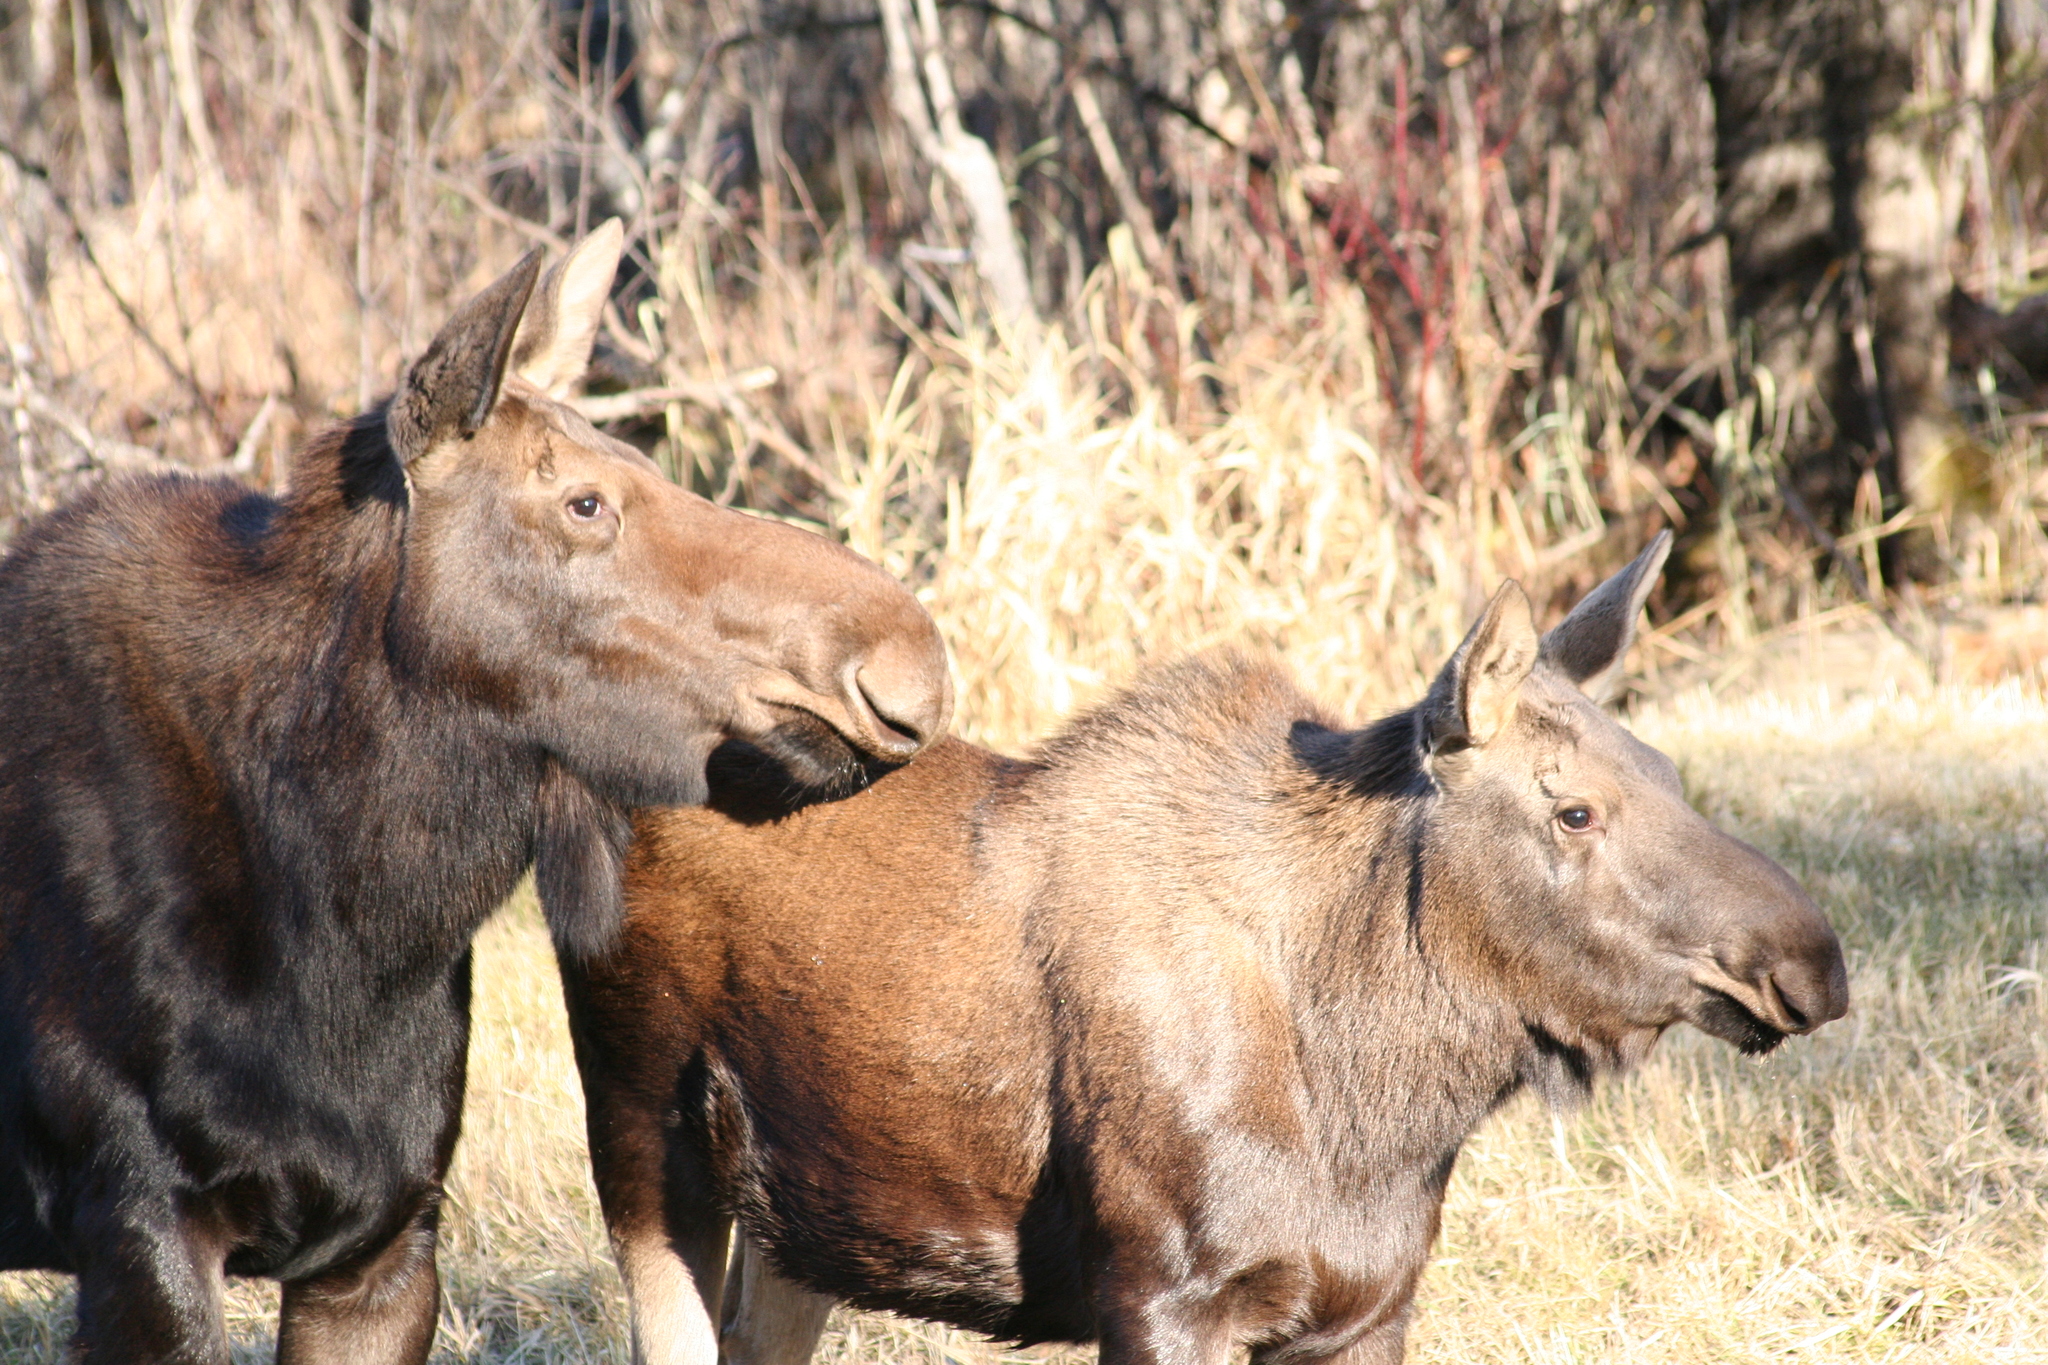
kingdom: Animalia
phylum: Chordata
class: Mammalia
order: Artiodactyla
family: Cervidae
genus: Alces
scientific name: Alces alces
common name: Moose
